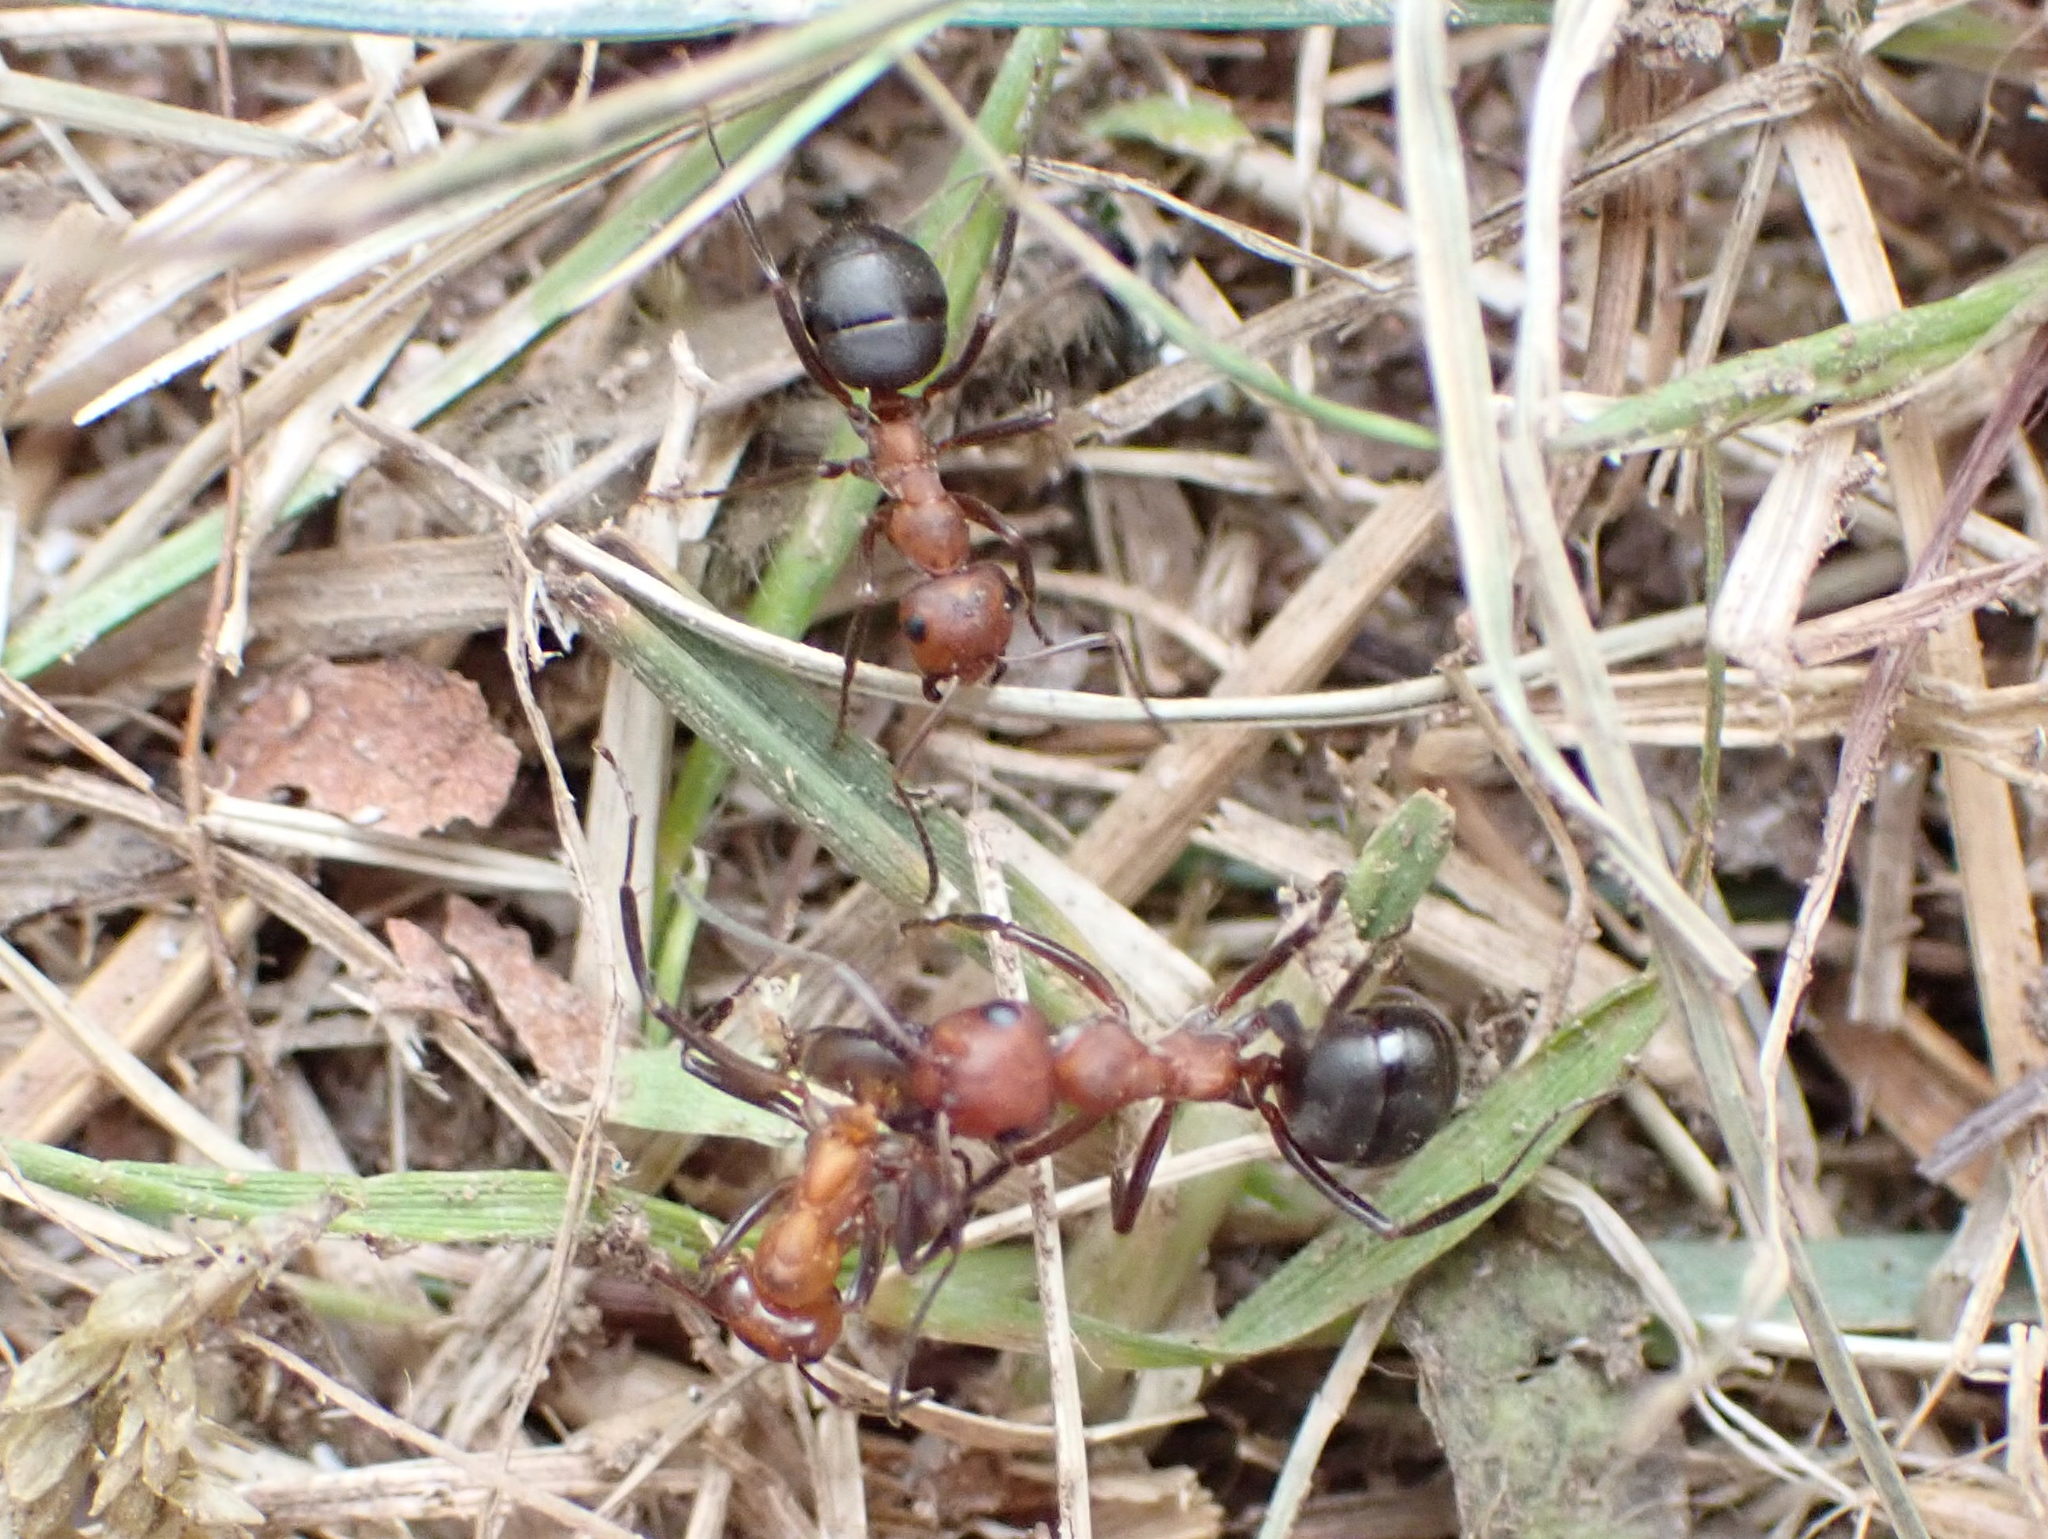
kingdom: Animalia
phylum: Arthropoda
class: Insecta
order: Hymenoptera
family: Formicidae
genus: Formica
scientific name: Formica exsectoides
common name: Allegheny mound ant
